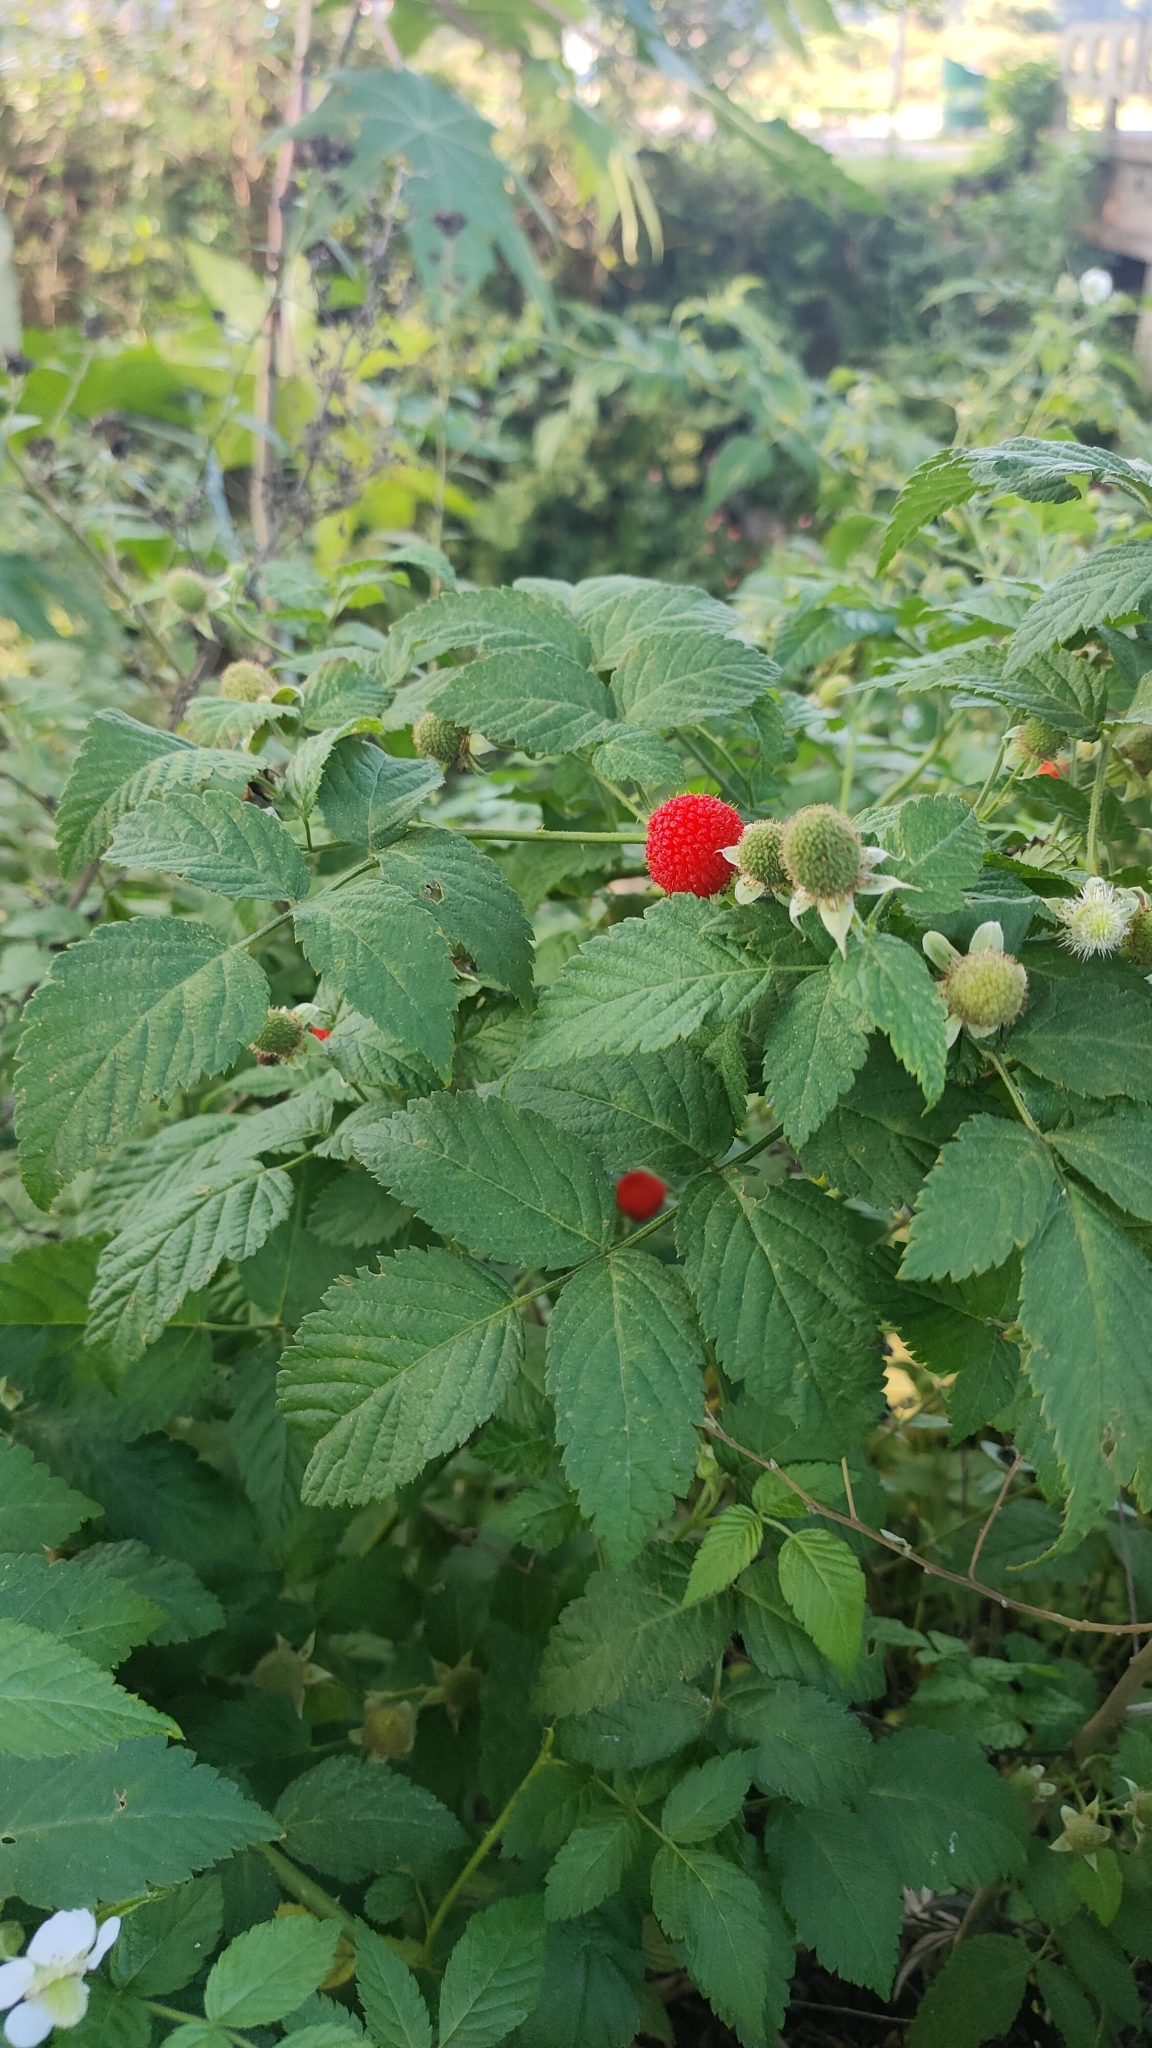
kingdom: Plantae
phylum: Tracheophyta
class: Magnoliopsida
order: Rosales
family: Rosaceae
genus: Rubus
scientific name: Rubus rosifolius
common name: Roseleaf raspberry
